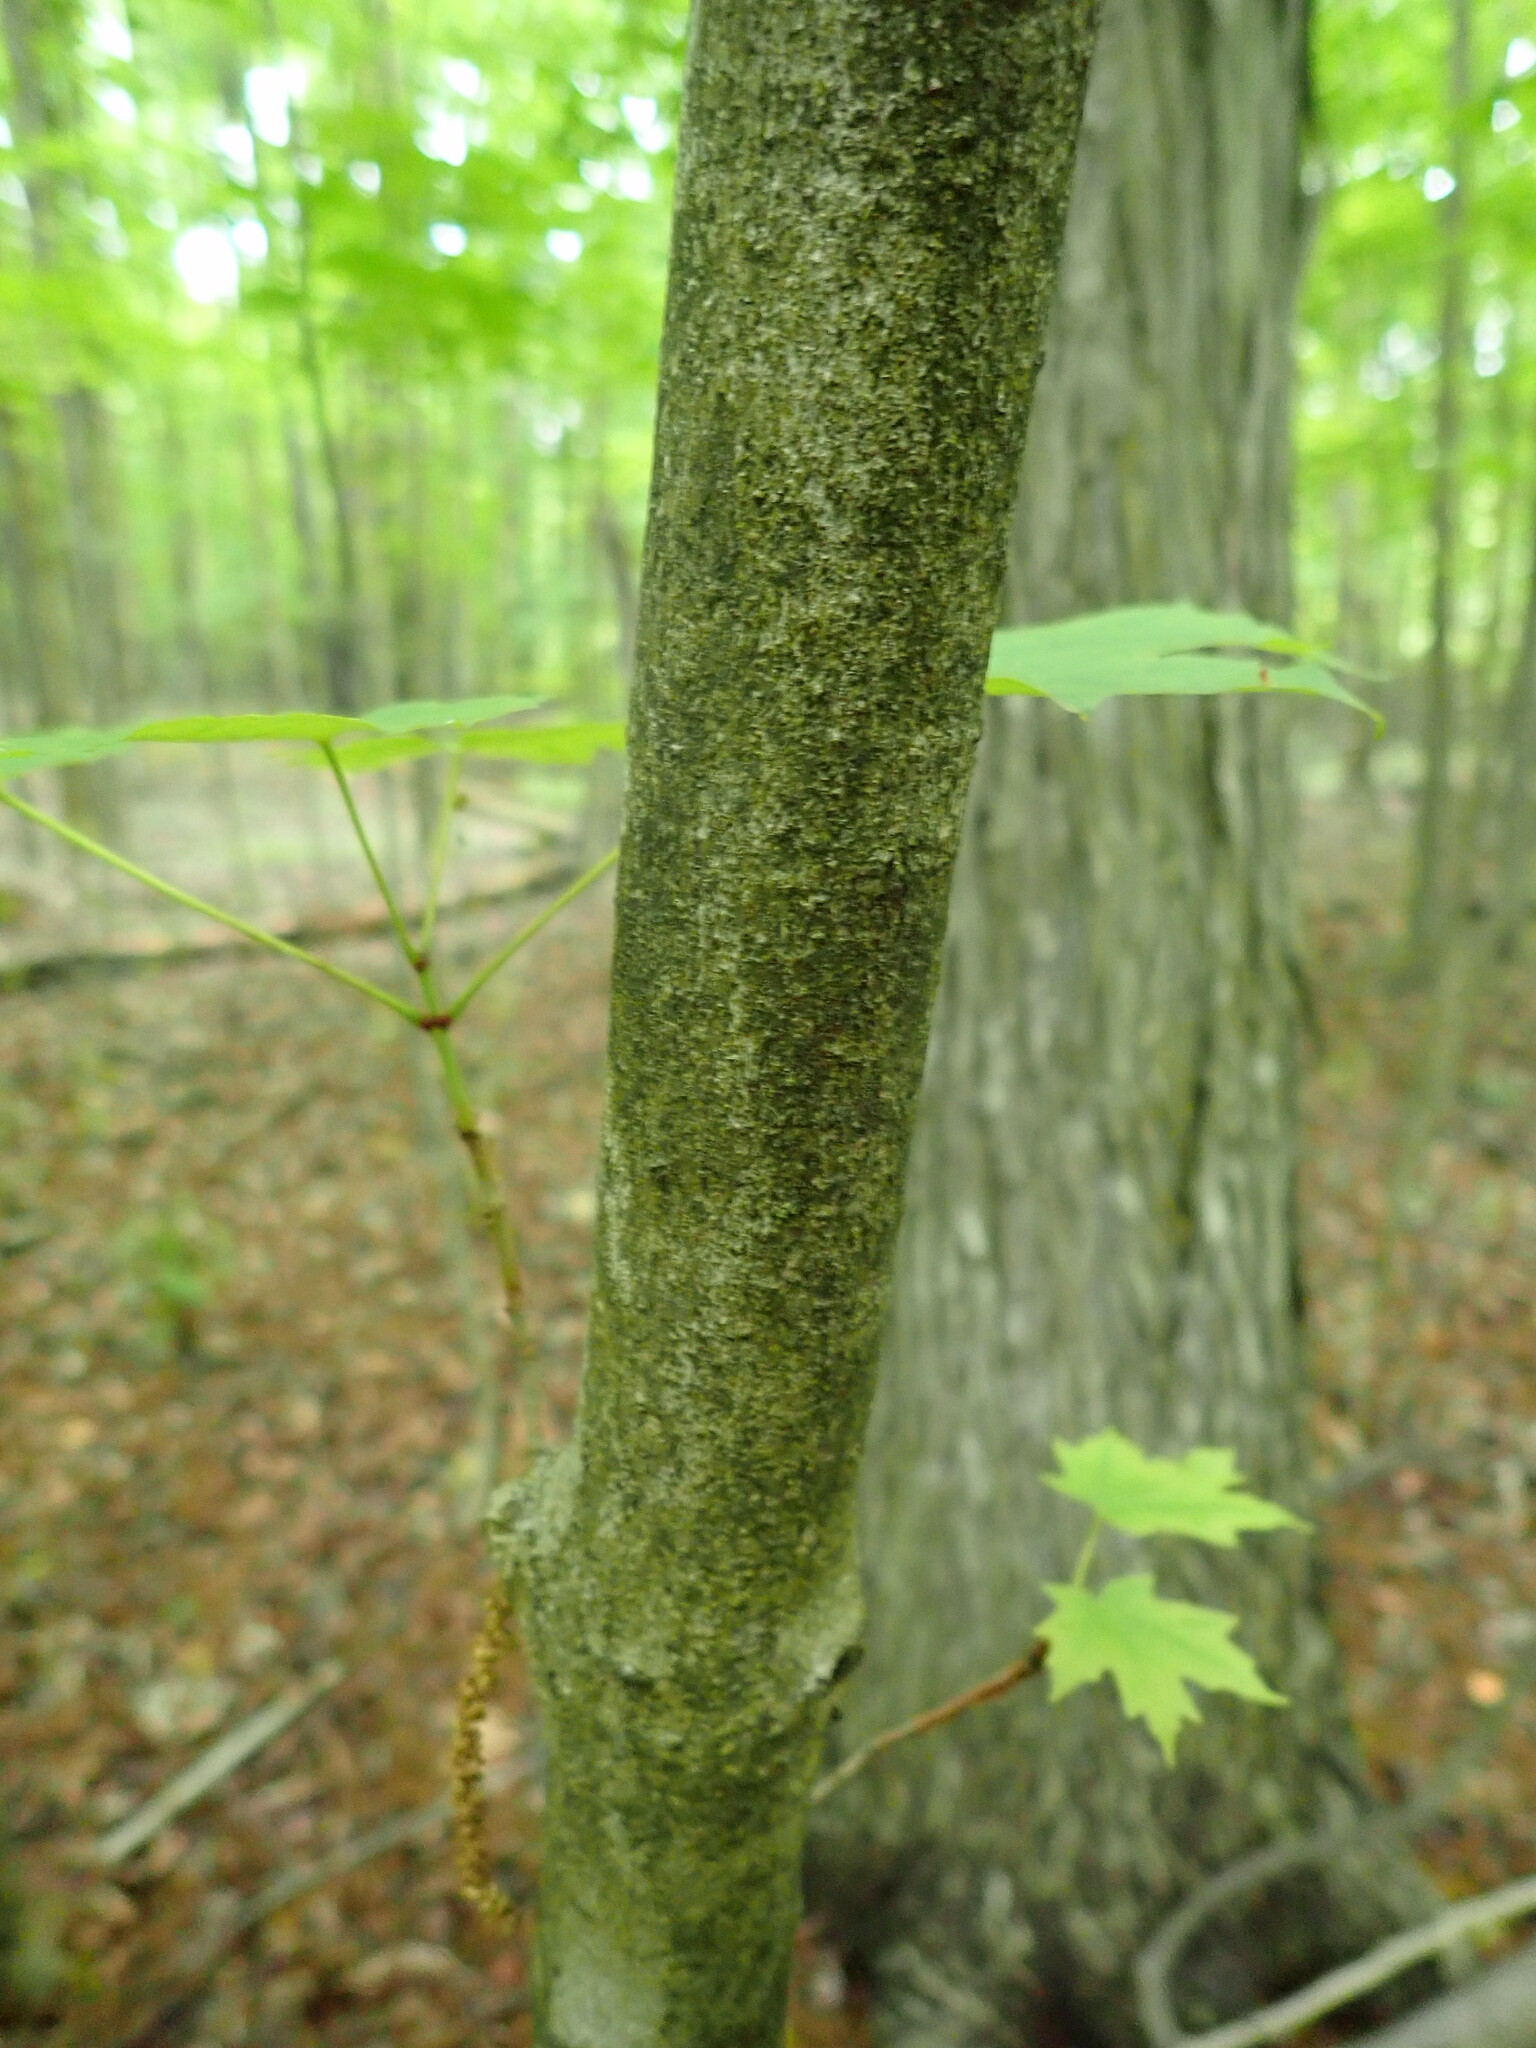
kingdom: Plantae
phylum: Tracheophyta
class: Magnoliopsida
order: Sapindales
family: Sapindaceae
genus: Acer
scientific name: Acer saccharum
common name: Sugar maple
